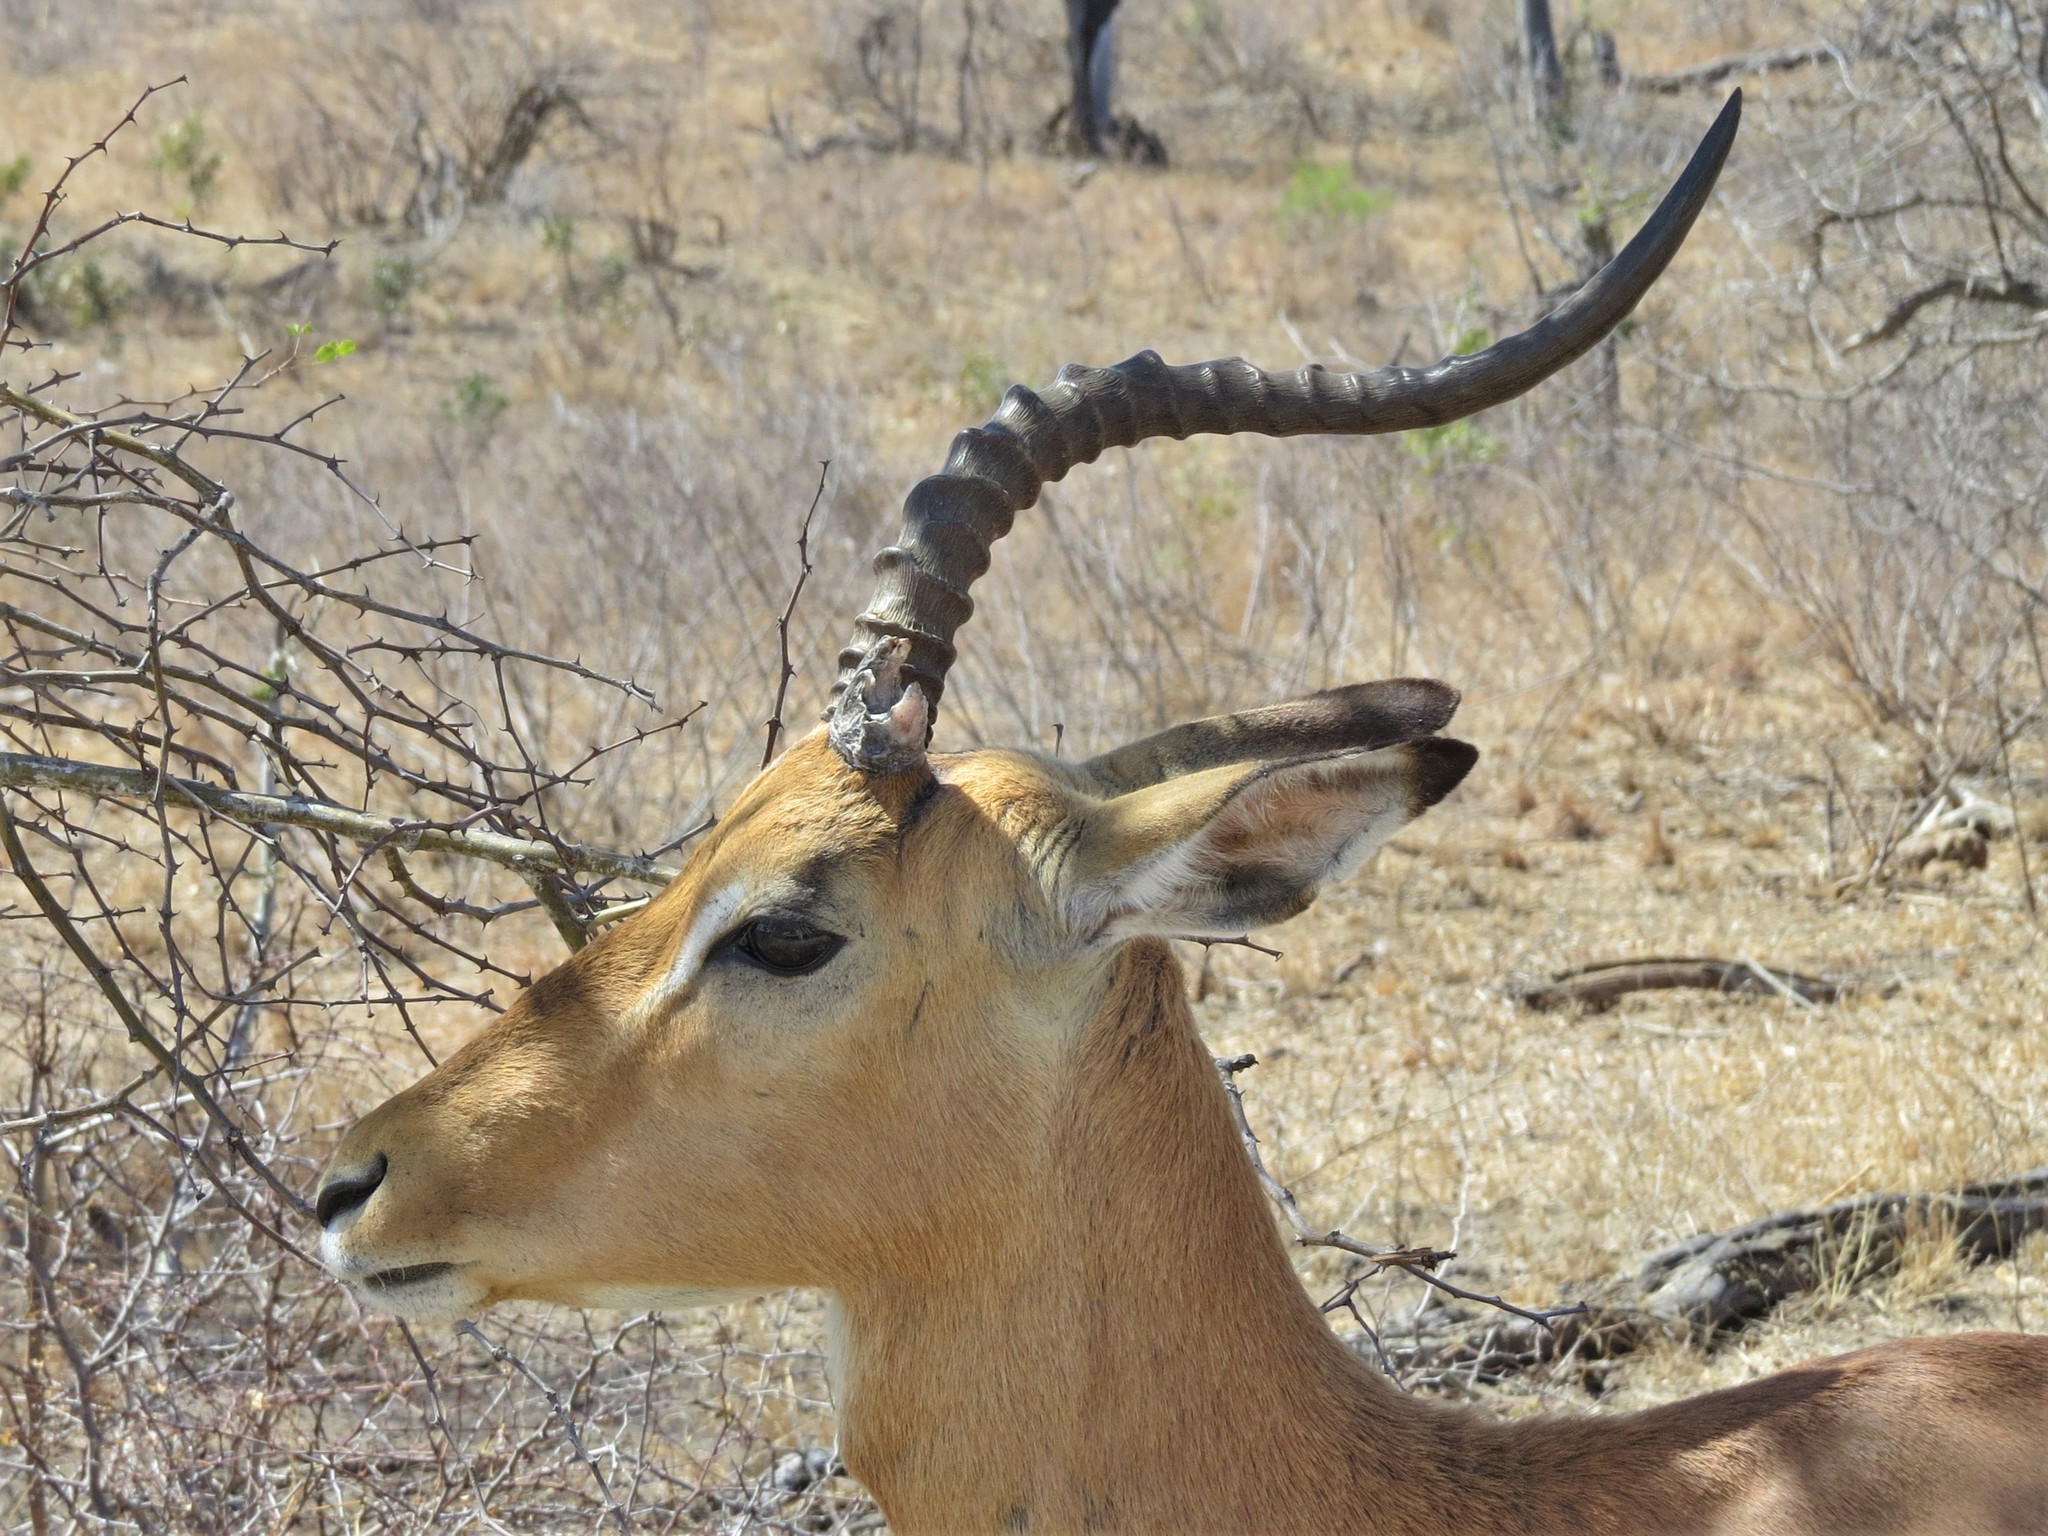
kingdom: Animalia
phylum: Chordata
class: Mammalia
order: Artiodactyla
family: Bovidae
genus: Aepyceros
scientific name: Aepyceros melampus
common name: Impala
